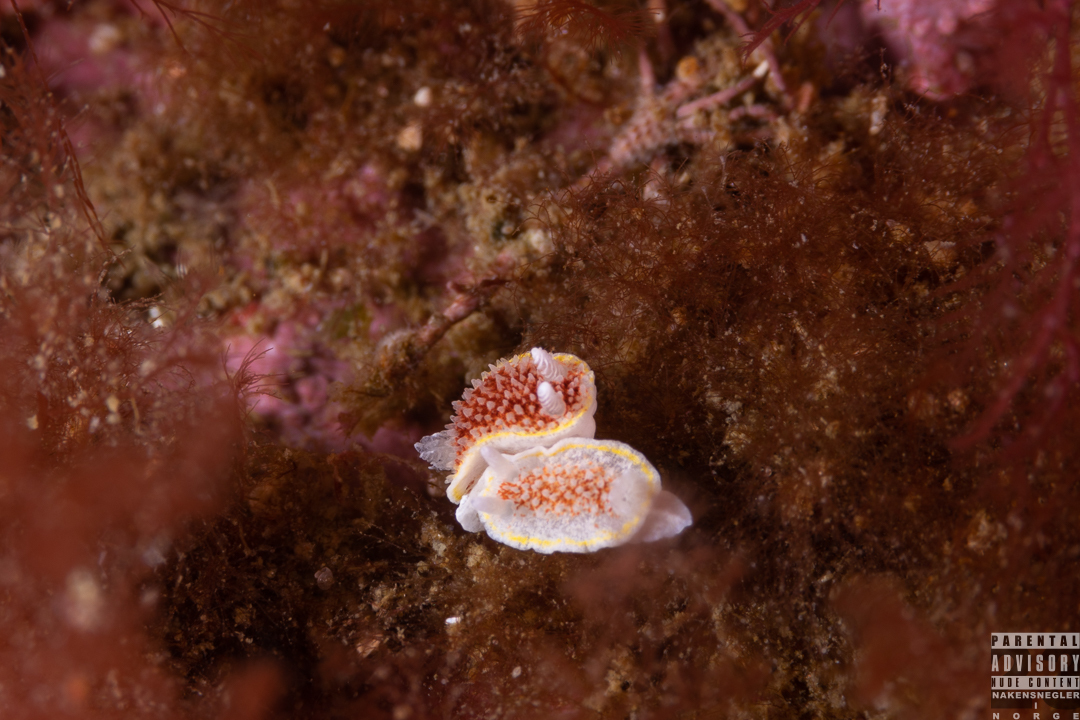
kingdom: Animalia
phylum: Mollusca
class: Gastropoda
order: Nudibranchia
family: Calycidorididae
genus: Diaphorodoris
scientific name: Diaphorodoris luteocincta
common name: Fried egg nudibranch
